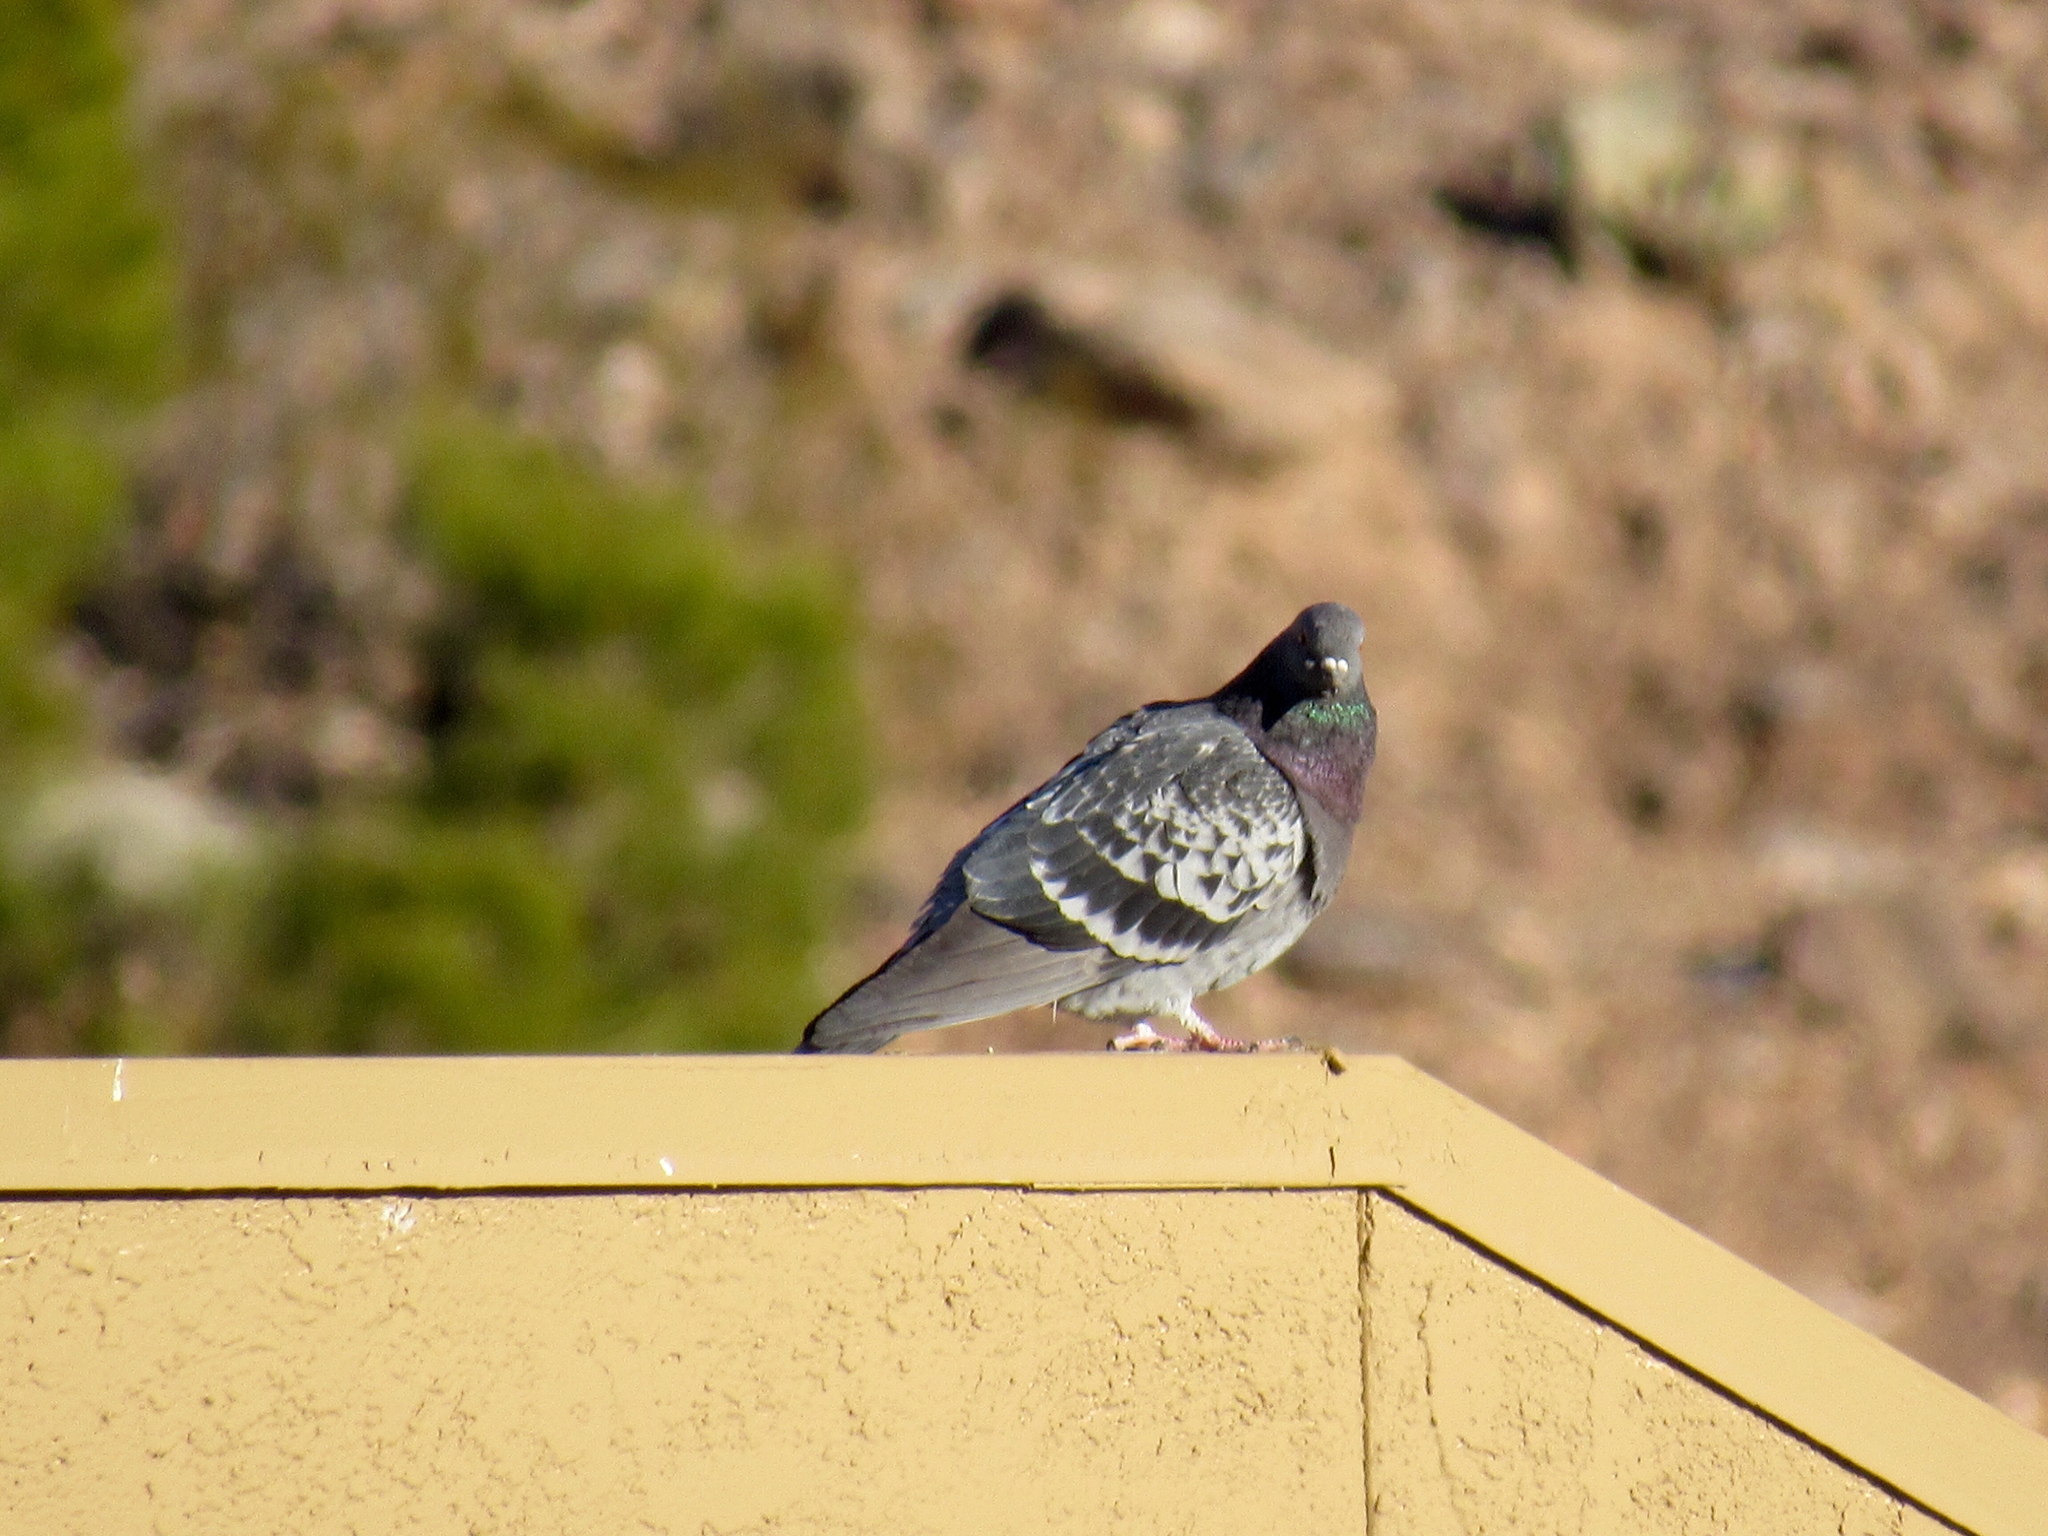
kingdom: Animalia
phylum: Chordata
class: Aves
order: Columbiformes
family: Columbidae
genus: Columba
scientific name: Columba livia
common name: Rock pigeon
